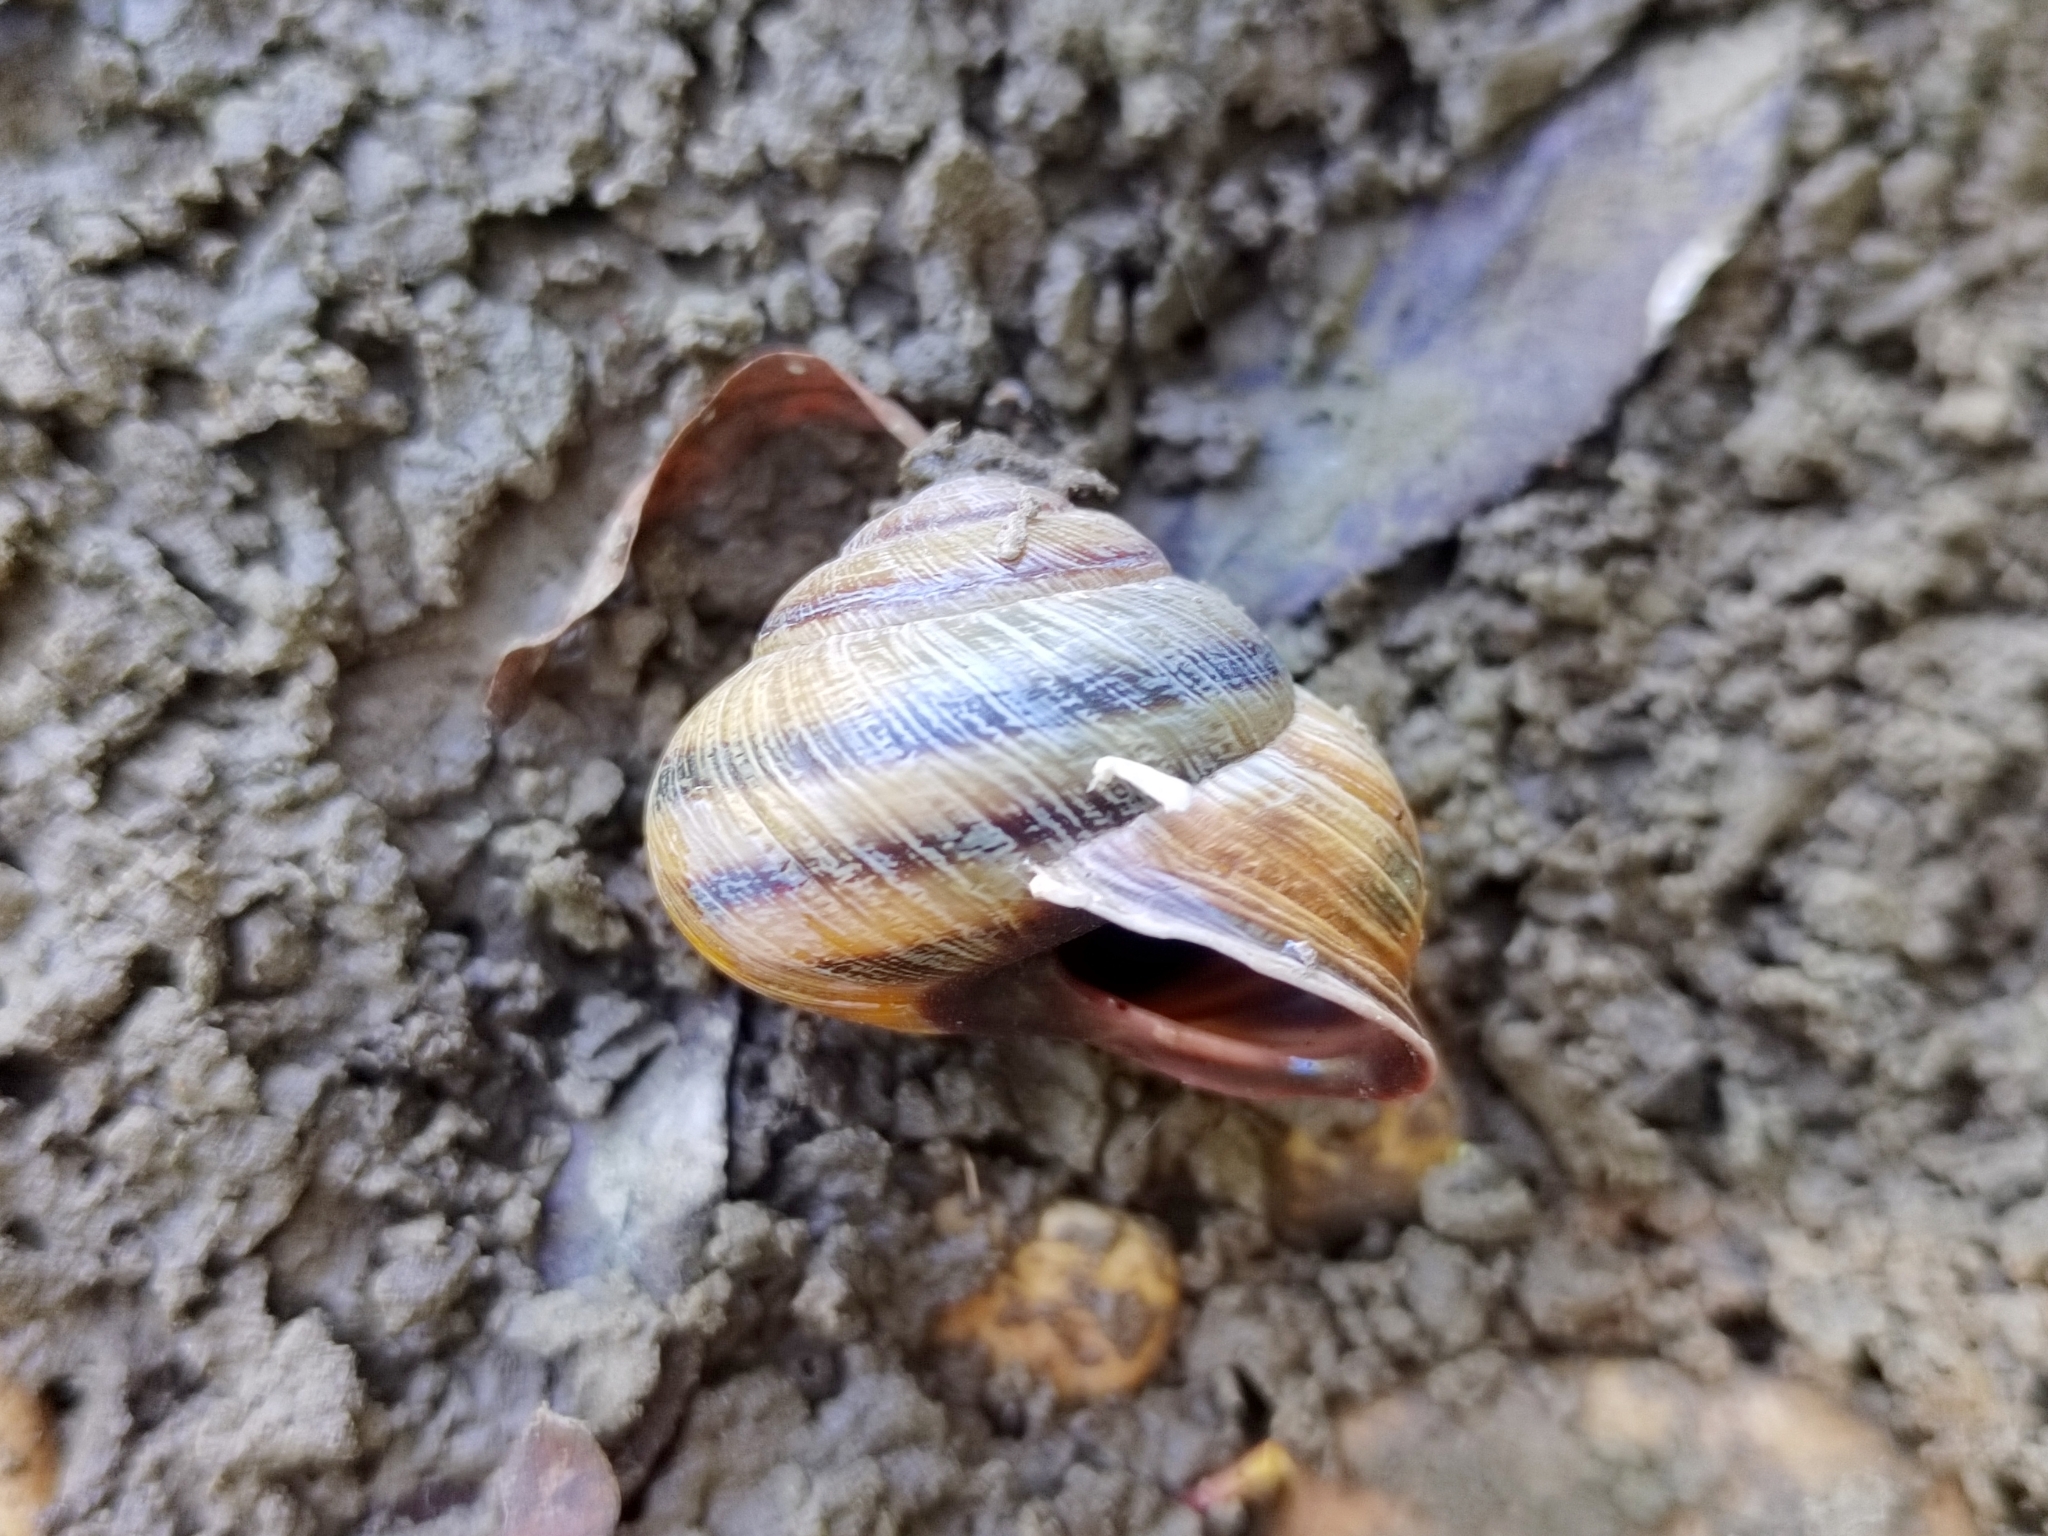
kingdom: Animalia
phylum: Mollusca
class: Gastropoda
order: Stylommatophora
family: Helicidae
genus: Caucasotachea
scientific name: Caucasotachea atrolabiata
